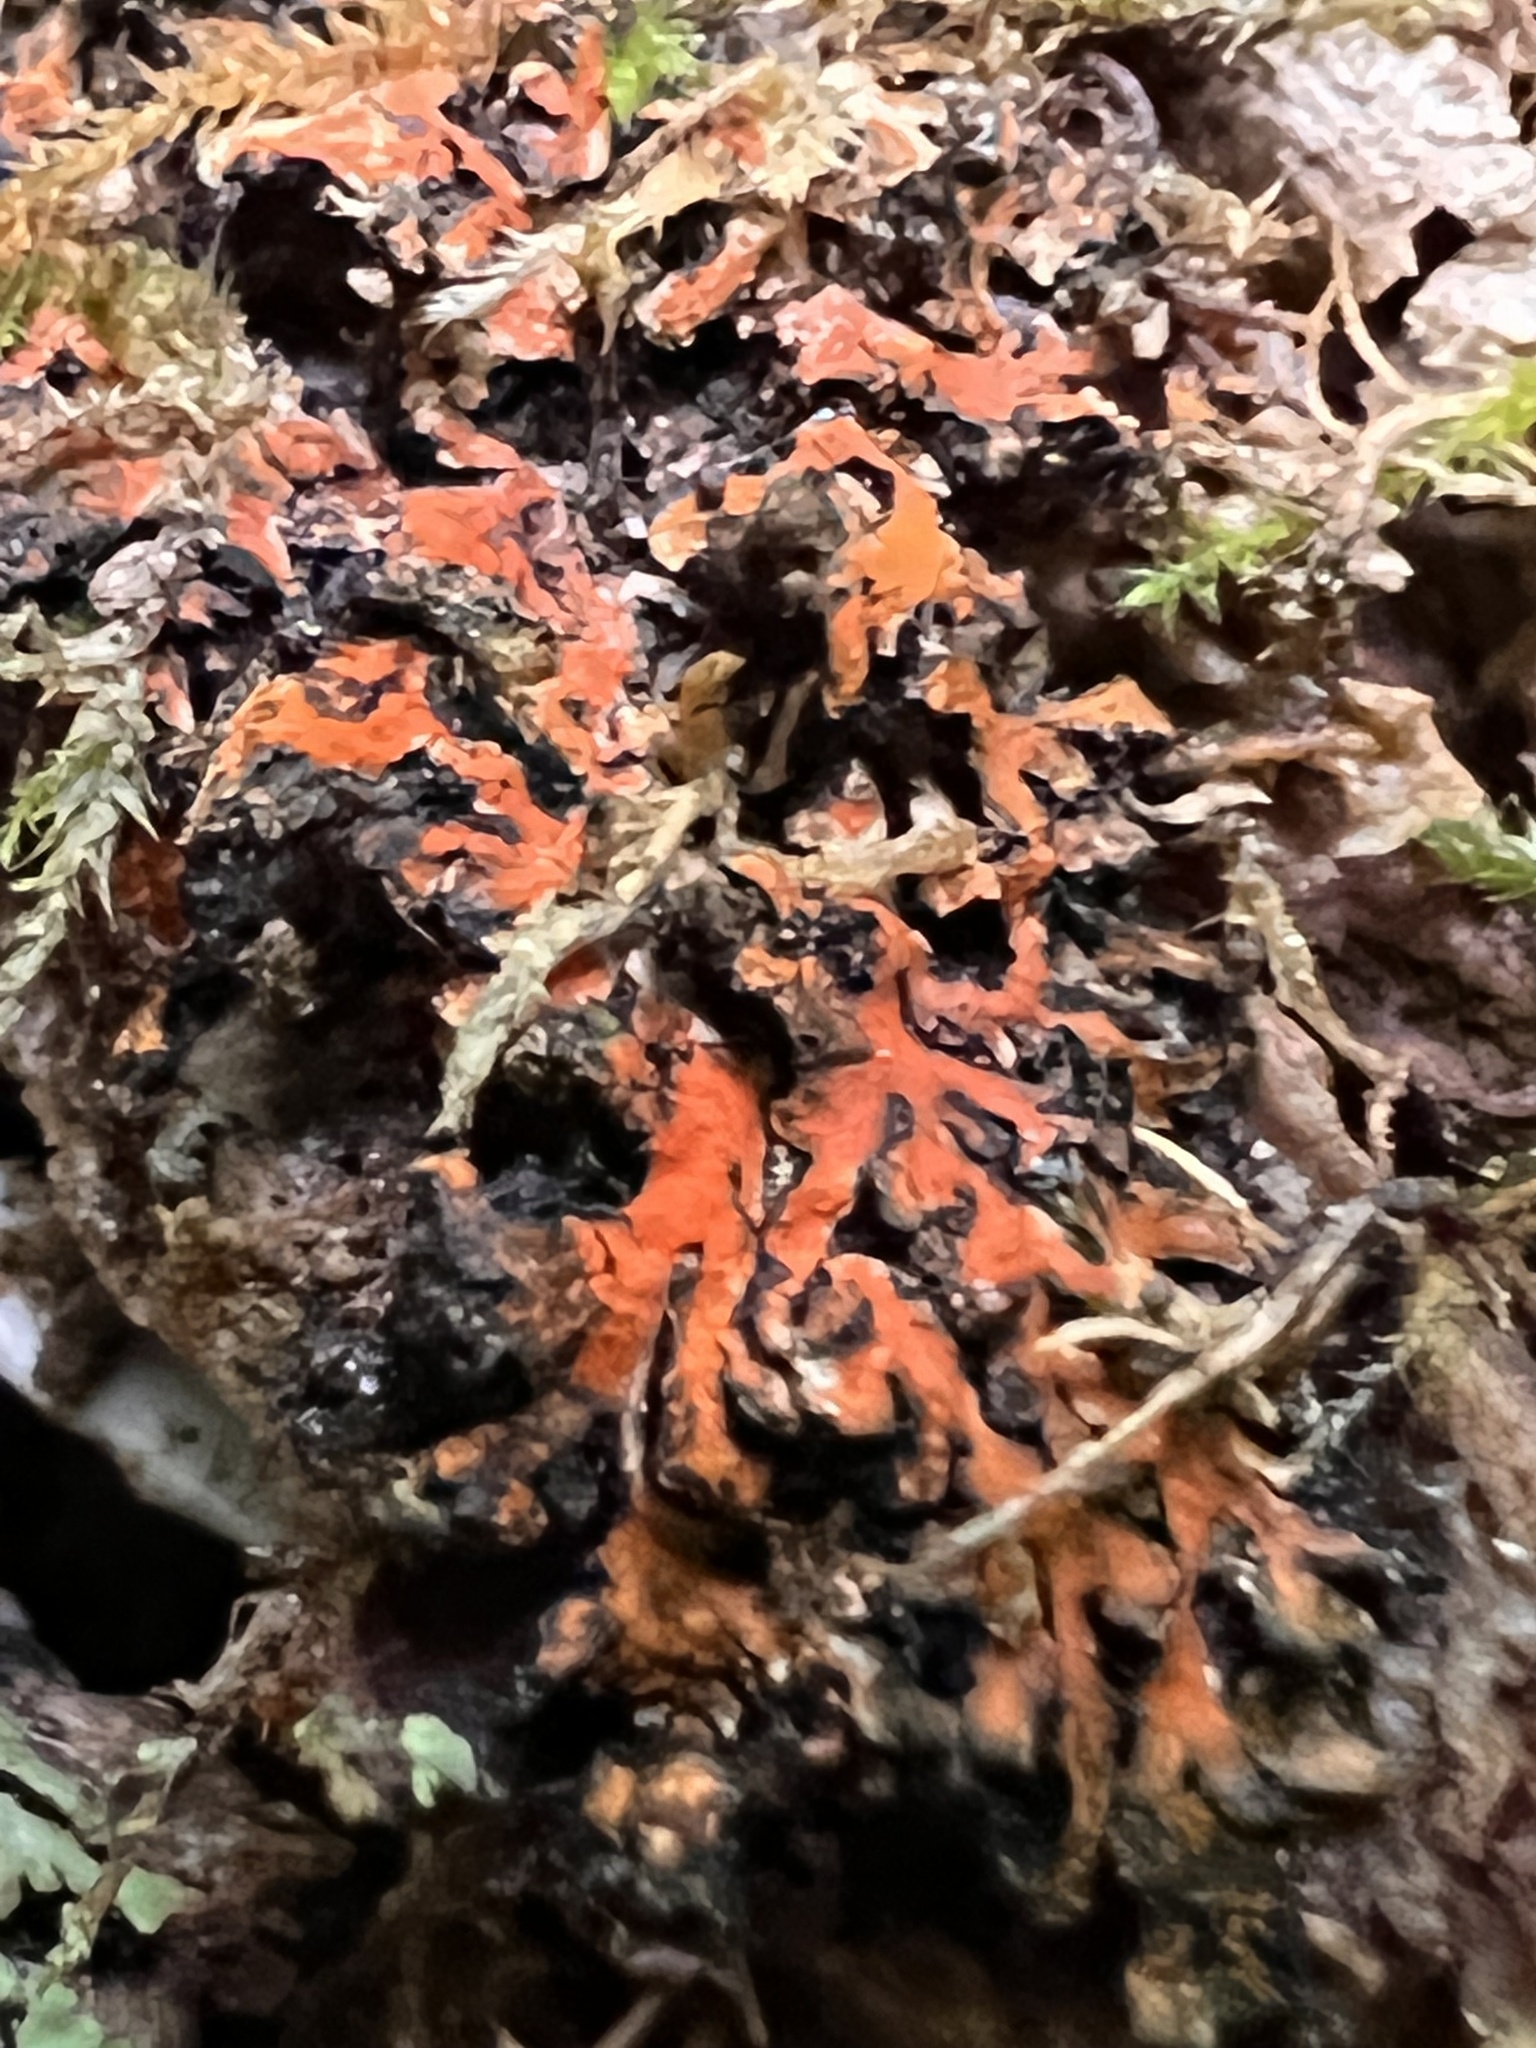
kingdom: Fungi
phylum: Ascomycota
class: Lecanoromycetes
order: Caliciales
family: Physciaceae
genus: Phaeophyscia
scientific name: Phaeophyscia rubropulchra
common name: Orange-cored shadow lichen
